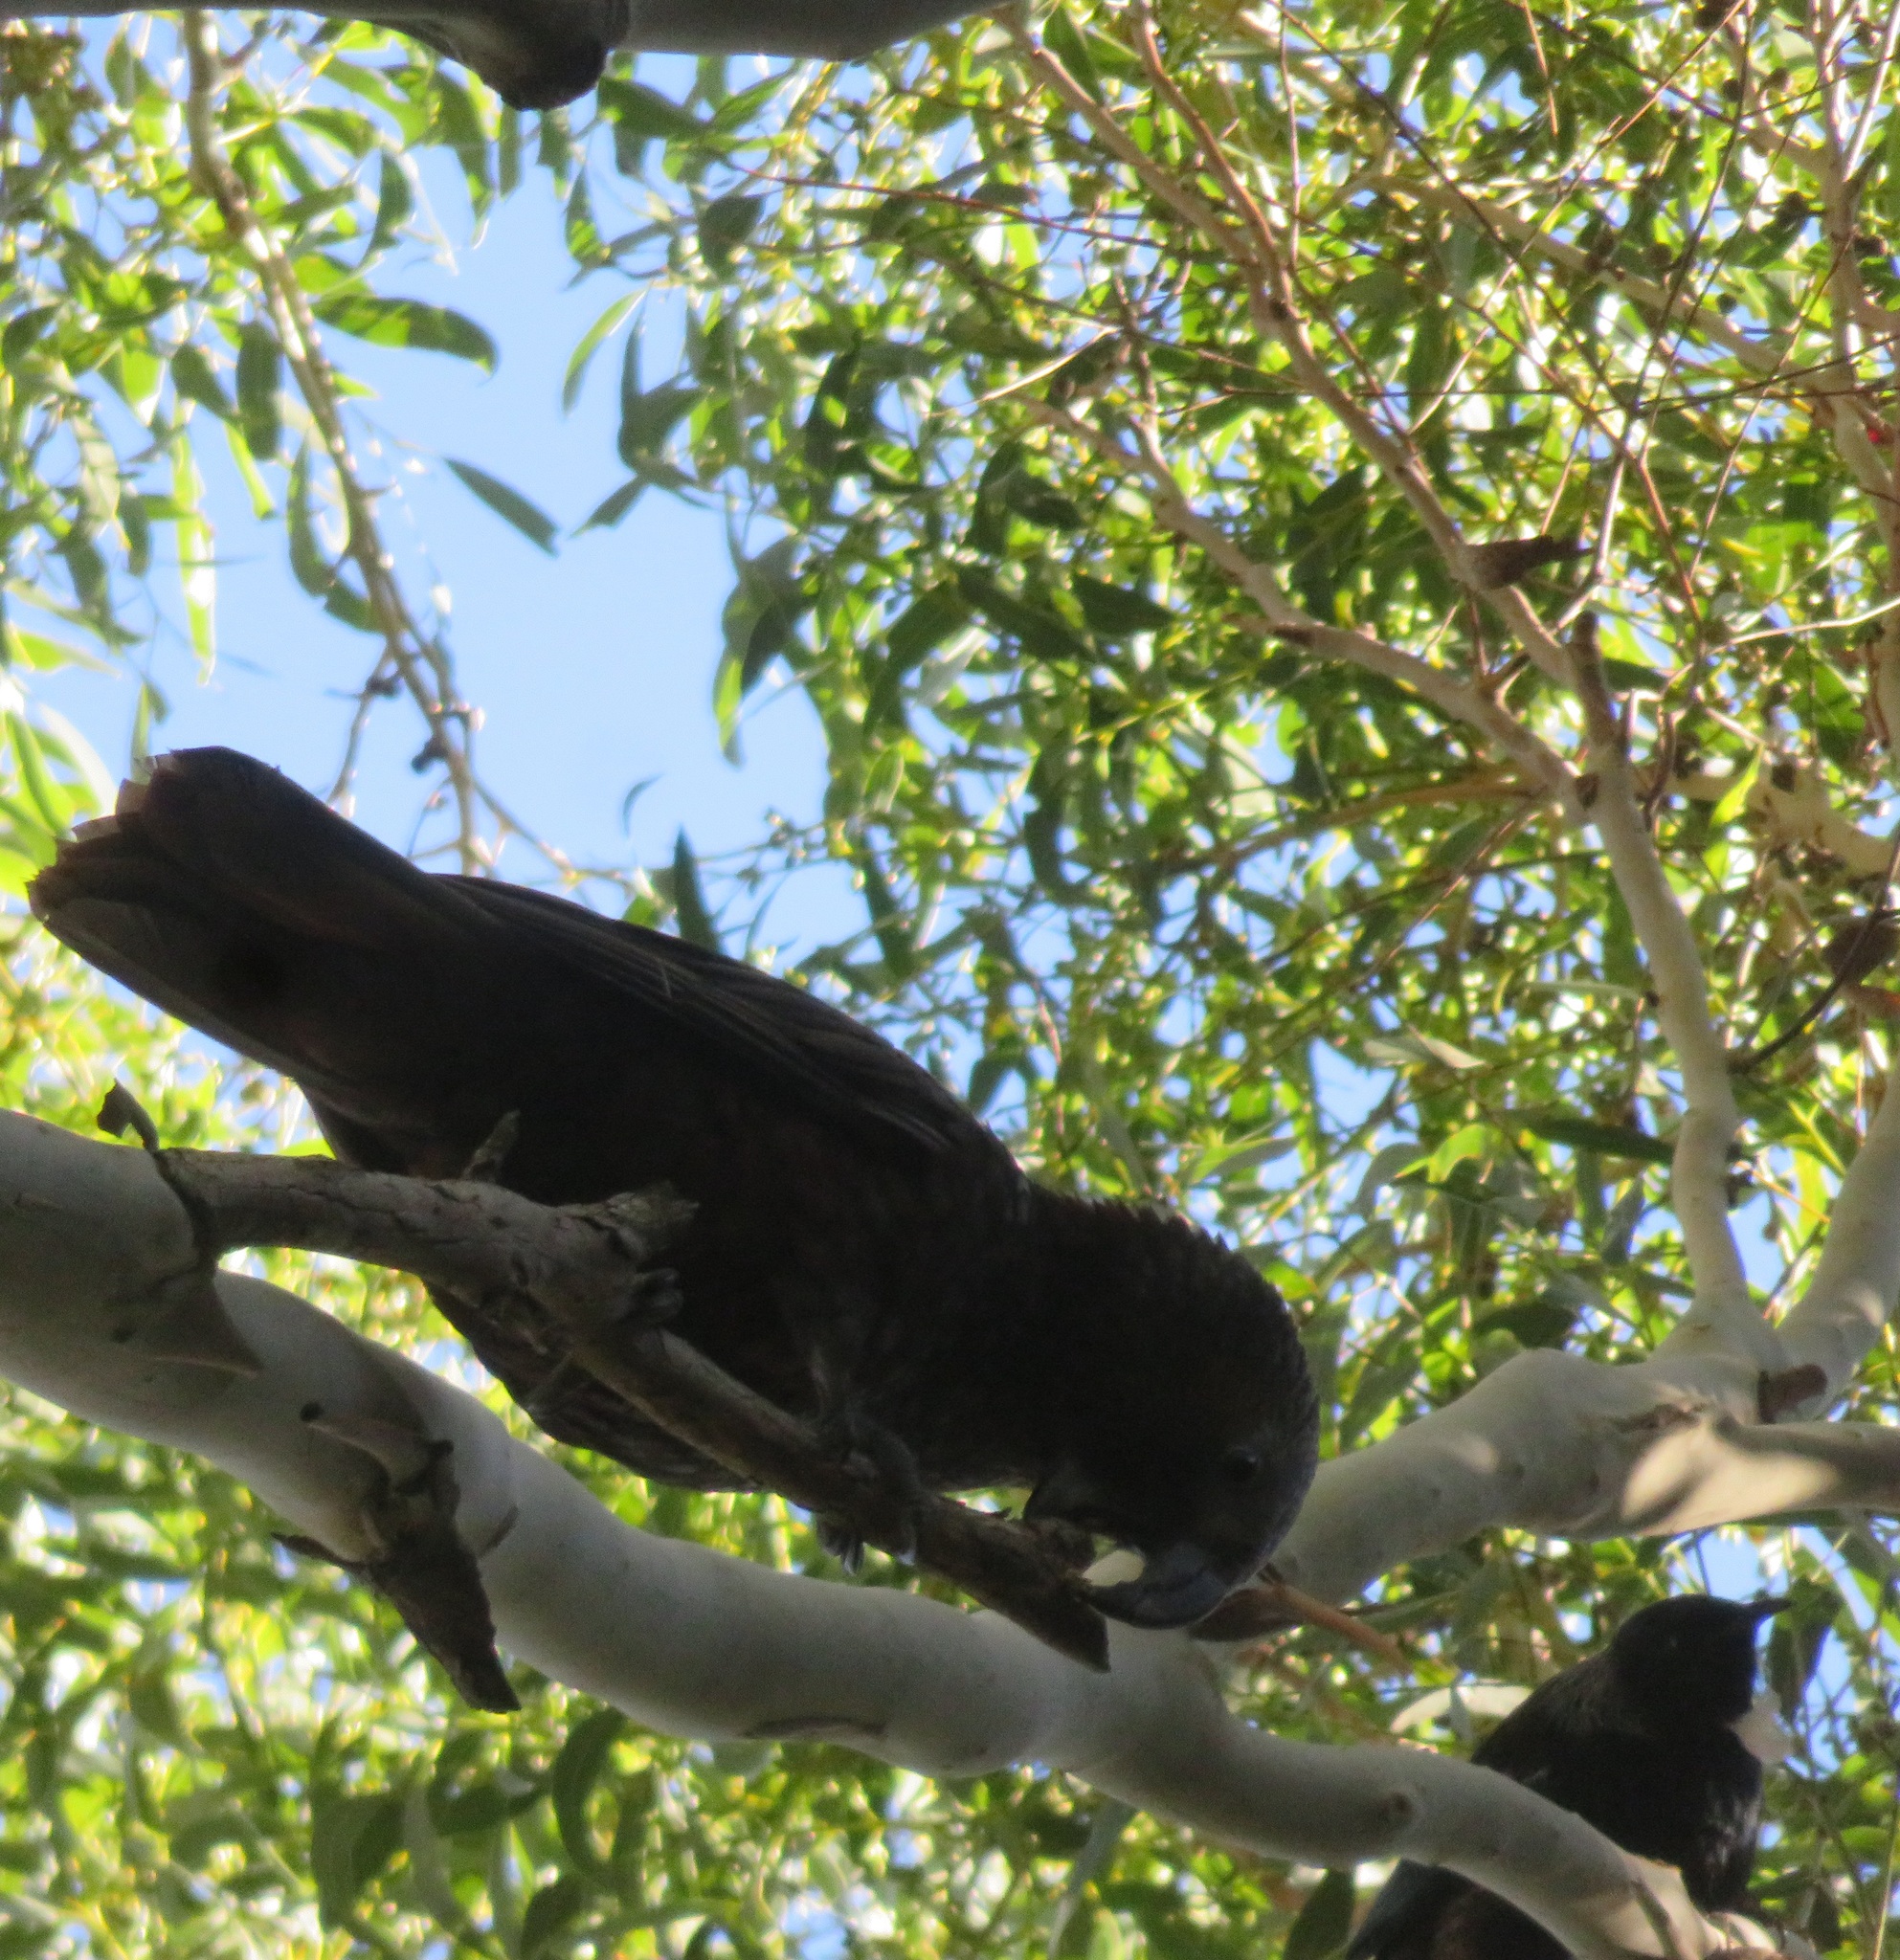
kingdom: Animalia
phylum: Chordata
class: Aves
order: Psittaciformes
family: Psittacidae
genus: Nestor
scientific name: Nestor meridionalis
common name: New zealand kaka
